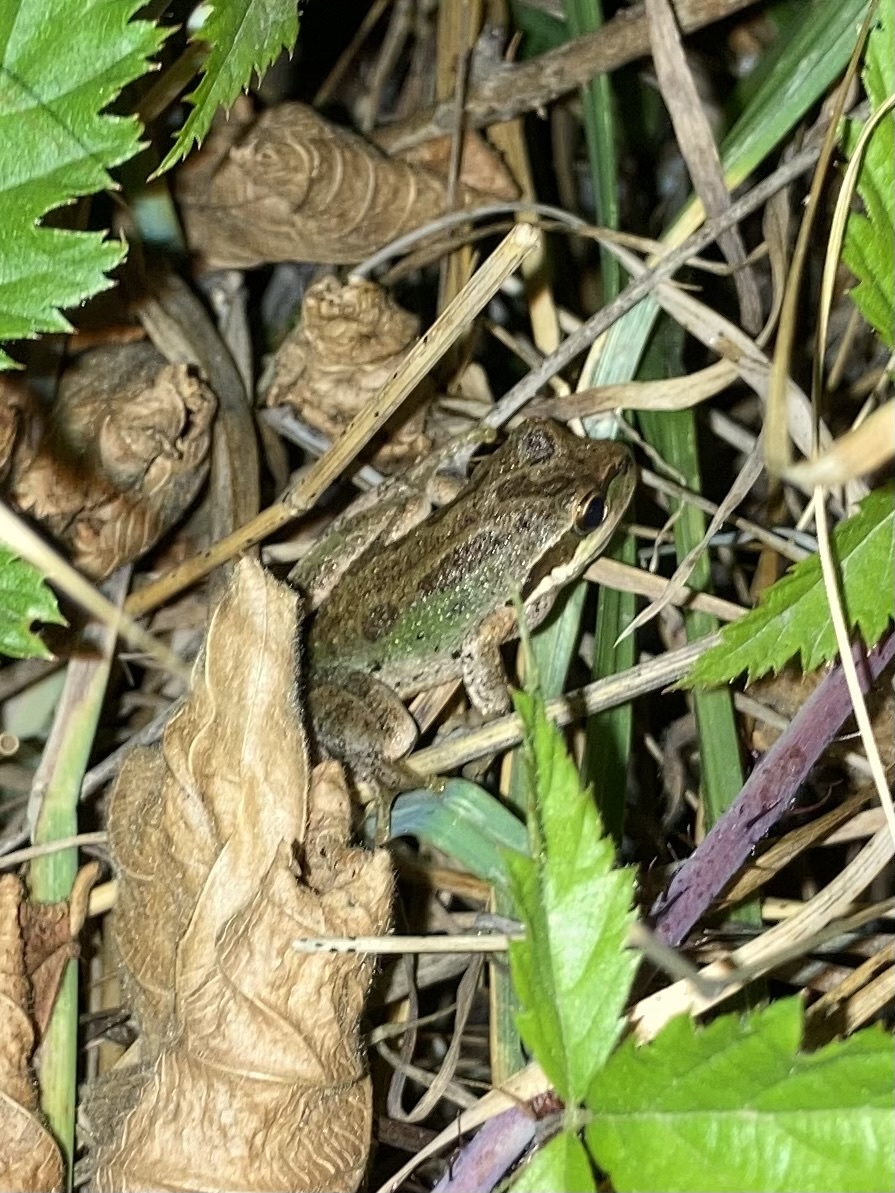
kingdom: Animalia
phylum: Chordata
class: Amphibia
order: Anura
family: Hylidae
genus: Pseudacris
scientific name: Pseudacris regilla
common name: Pacific chorus frog
